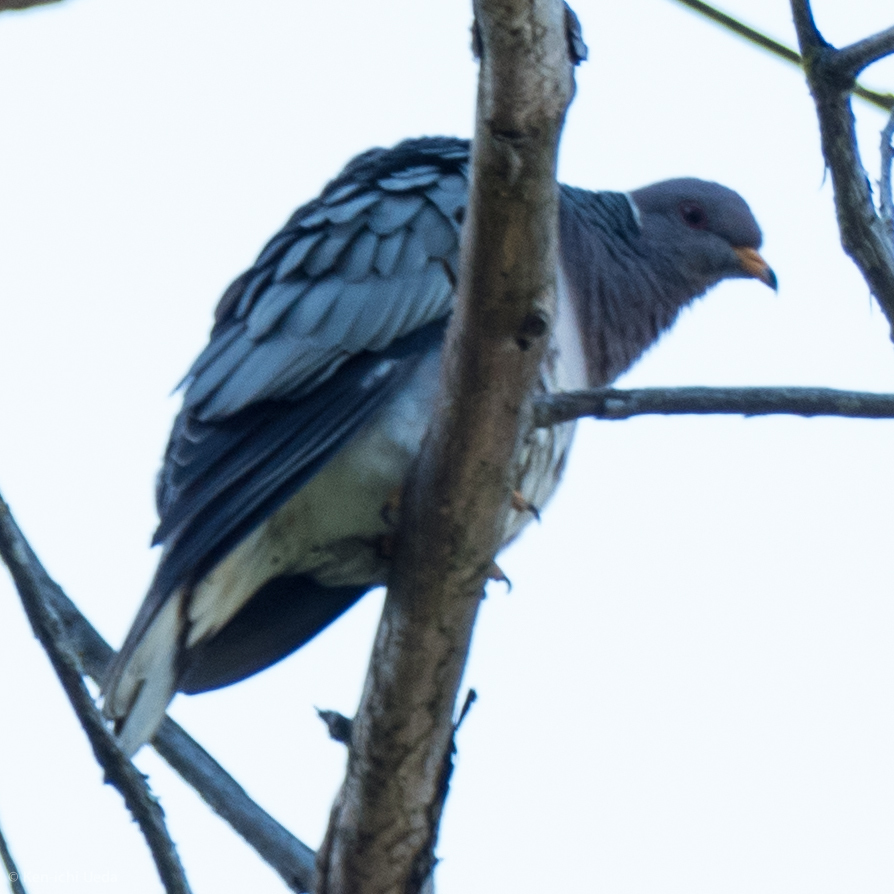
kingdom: Animalia
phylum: Chordata
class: Aves
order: Columbiformes
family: Columbidae
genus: Patagioenas
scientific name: Patagioenas fasciata
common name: Band-tailed pigeon
